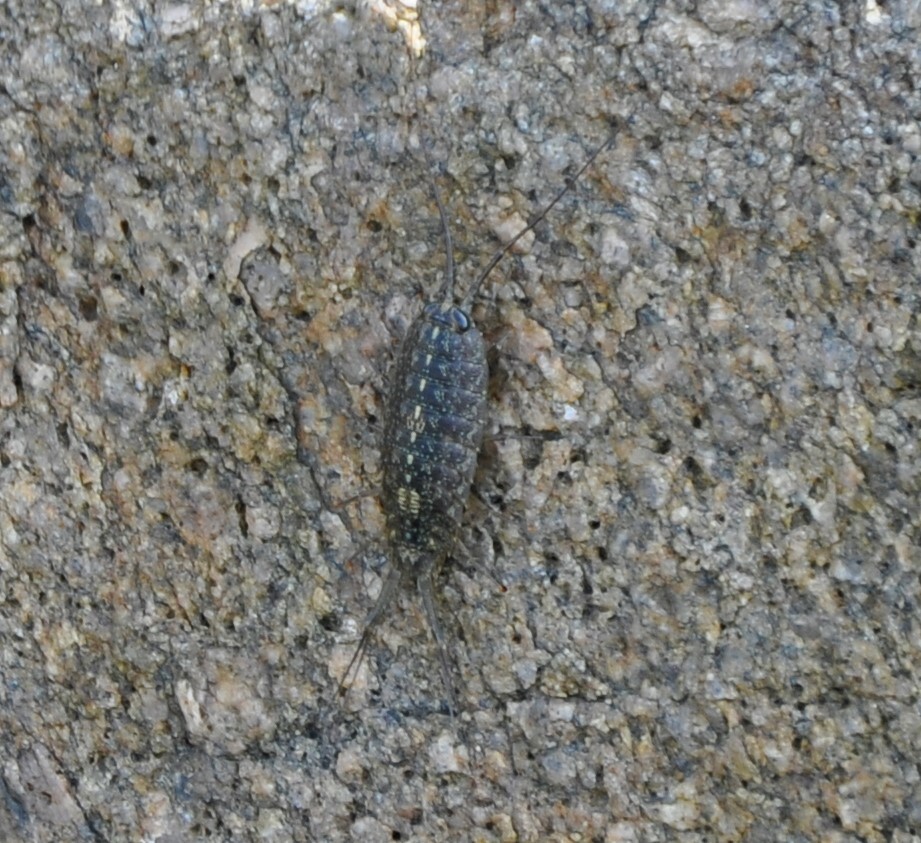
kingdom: Animalia
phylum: Arthropoda
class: Malacostraca
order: Isopoda
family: Ligiidae
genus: Ligia
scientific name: Ligia exotica
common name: Wharf roach
